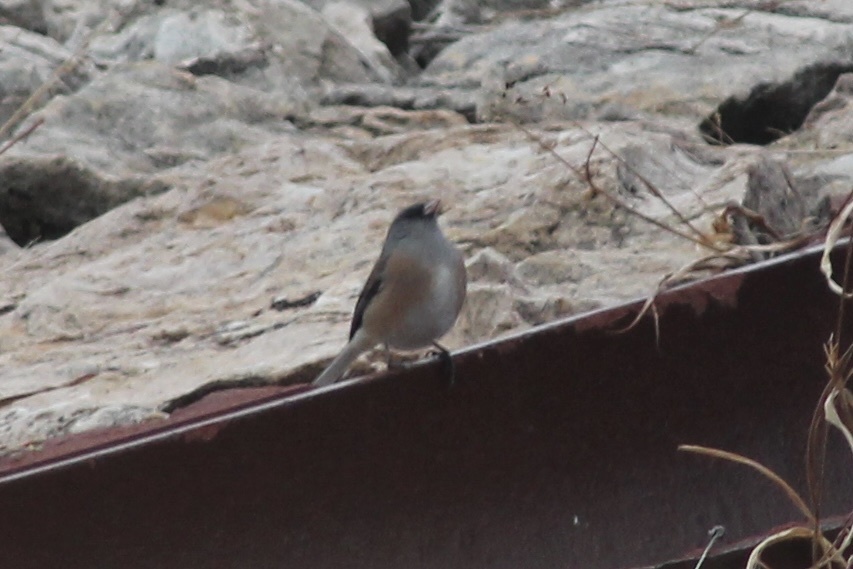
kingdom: Animalia
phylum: Chordata
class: Aves
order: Passeriformes
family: Passerellidae
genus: Junco
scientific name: Junco hyemalis
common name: Dark-eyed junco
